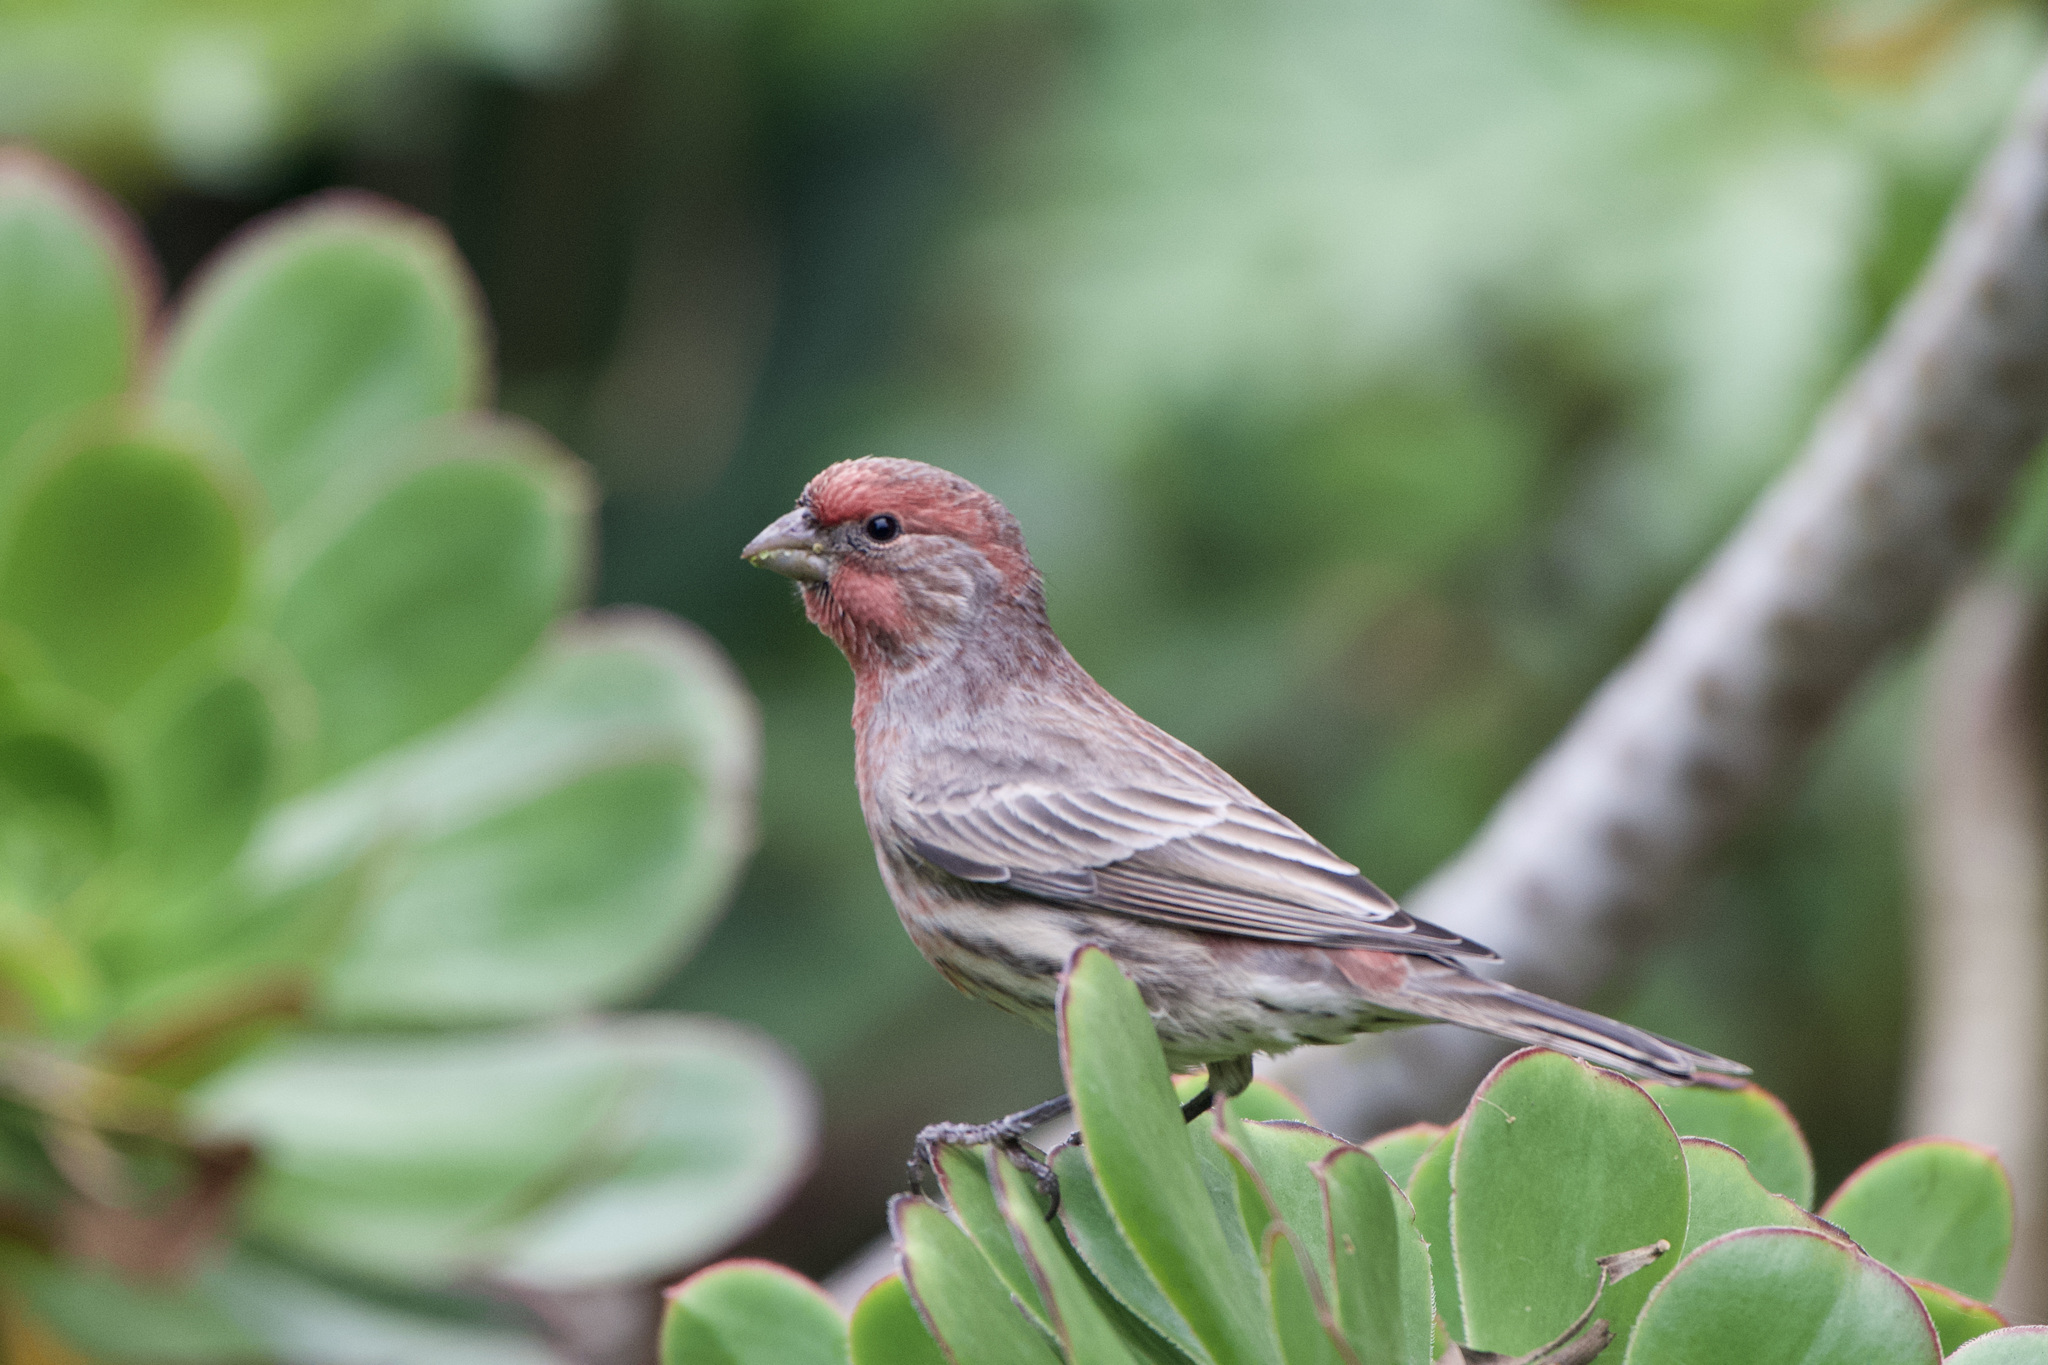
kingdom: Animalia
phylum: Chordata
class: Aves
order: Passeriformes
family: Fringillidae
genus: Haemorhous
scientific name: Haemorhous mexicanus
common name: House finch
